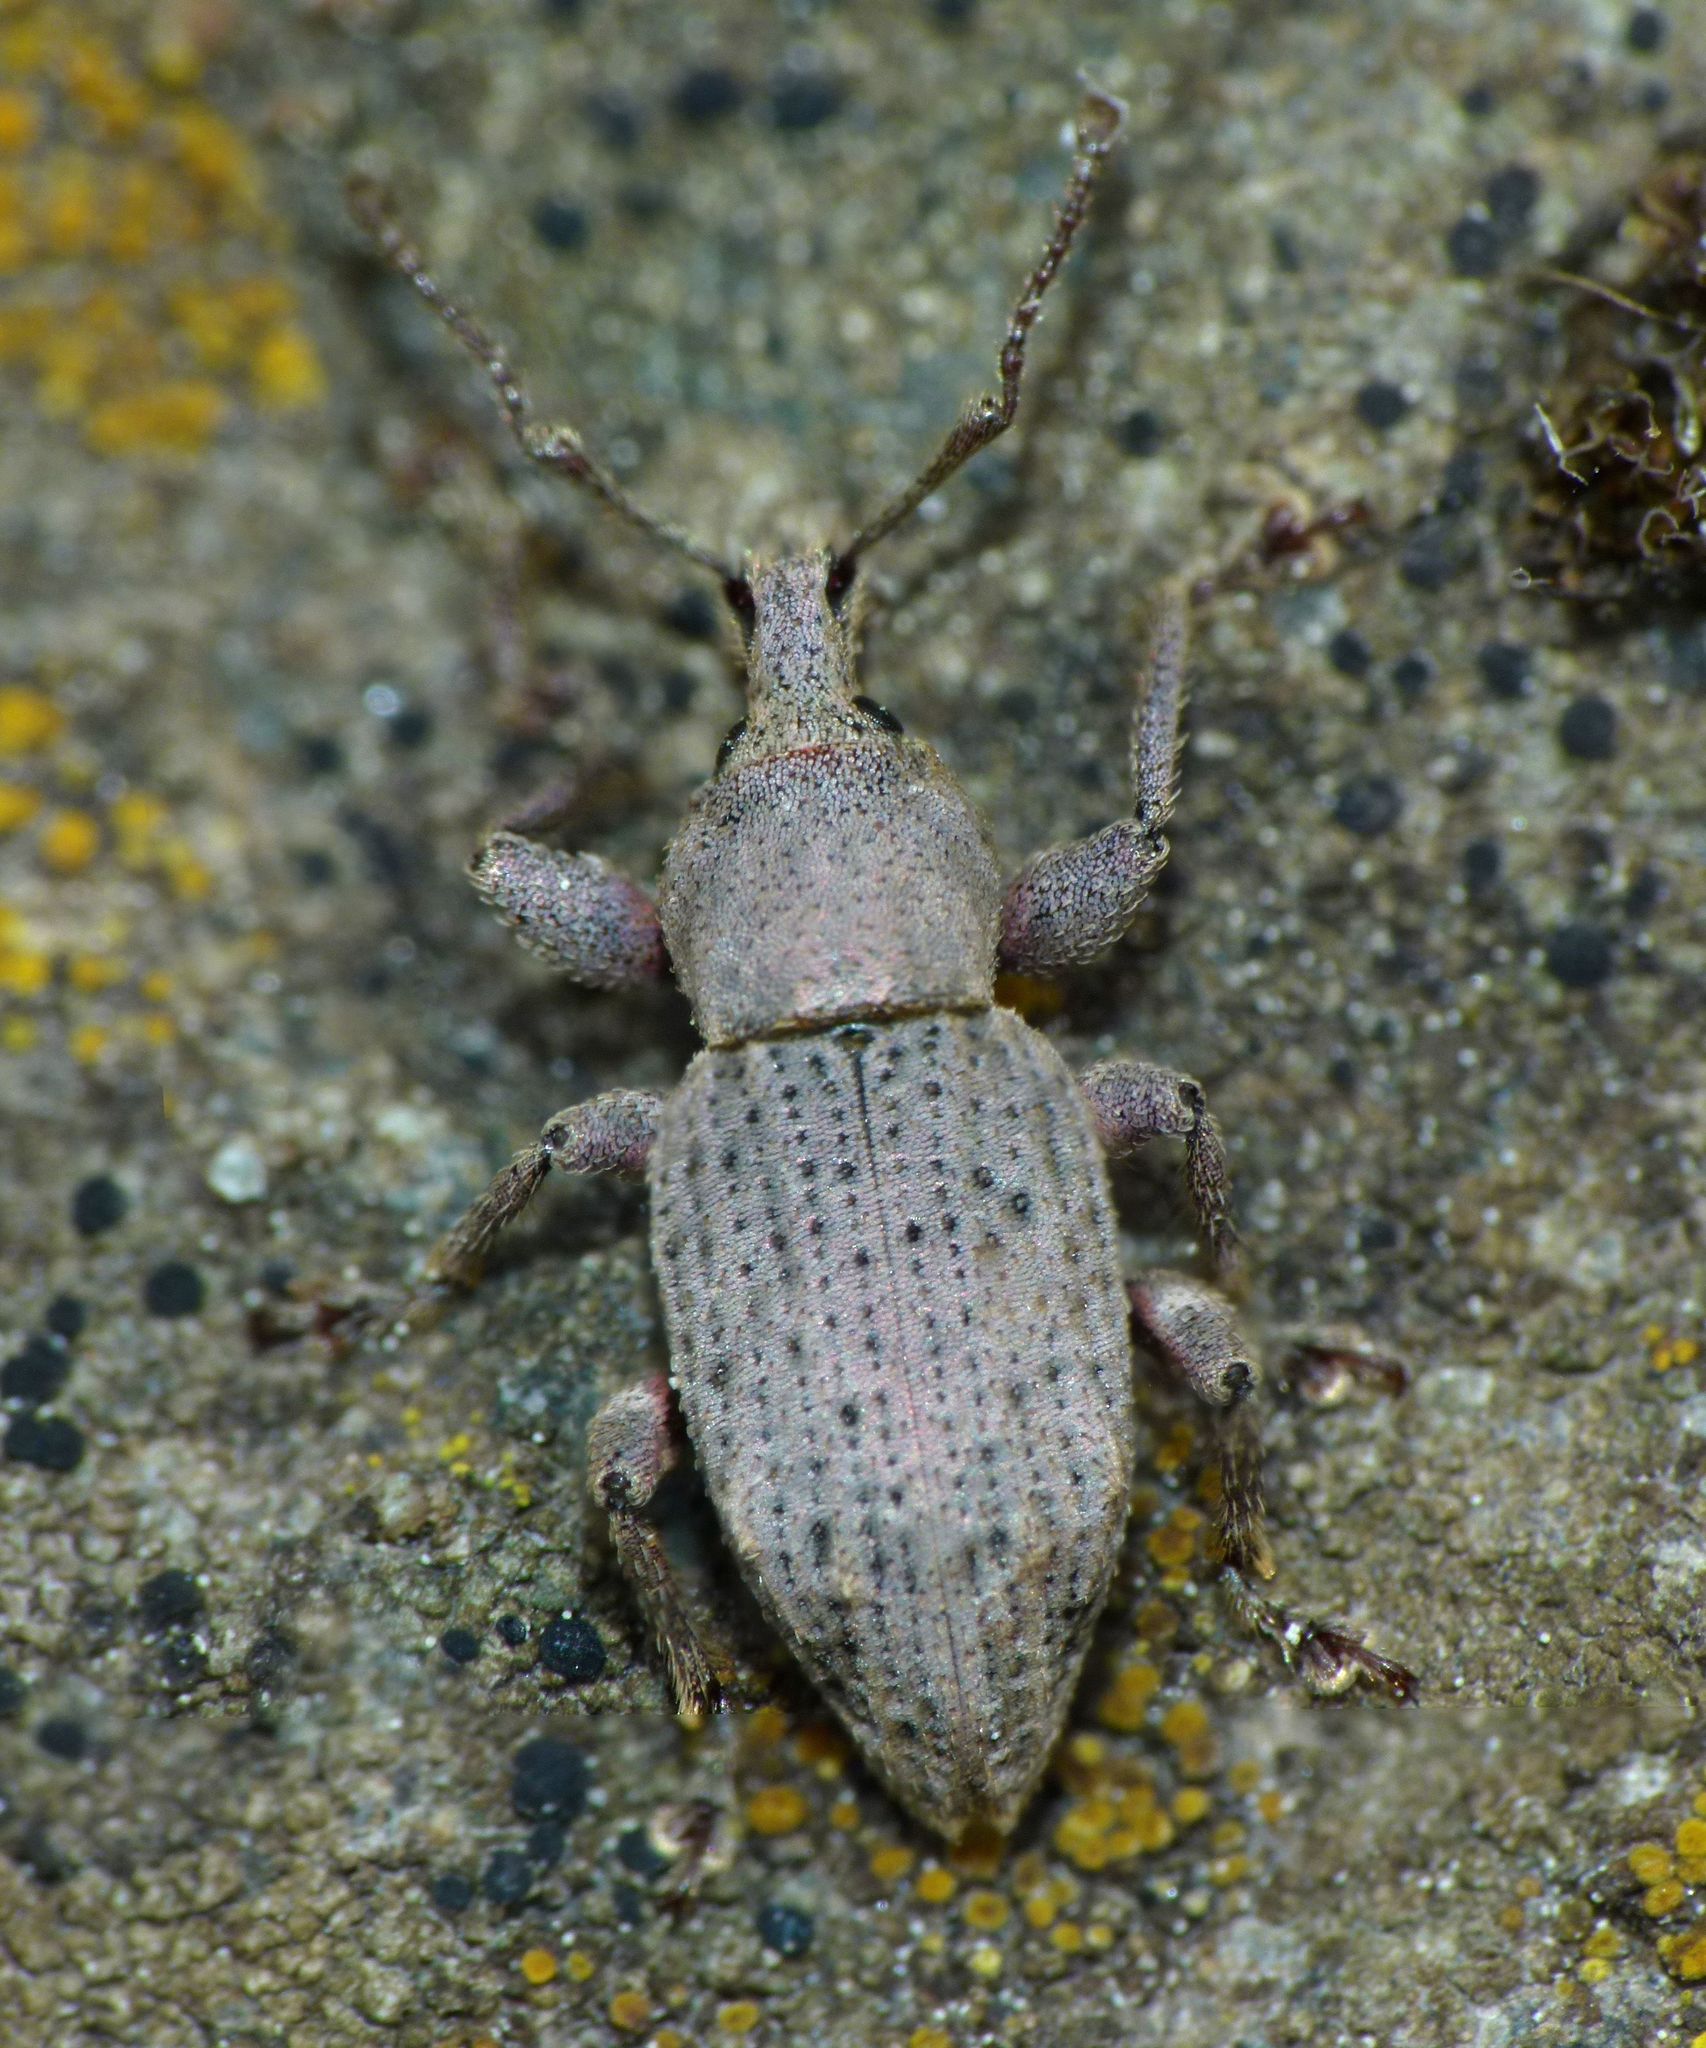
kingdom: Animalia
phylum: Arthropoda
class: Insecta
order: Coleoptera
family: Curculionidae
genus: Chalepistes
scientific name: Chalepistes rubidus
